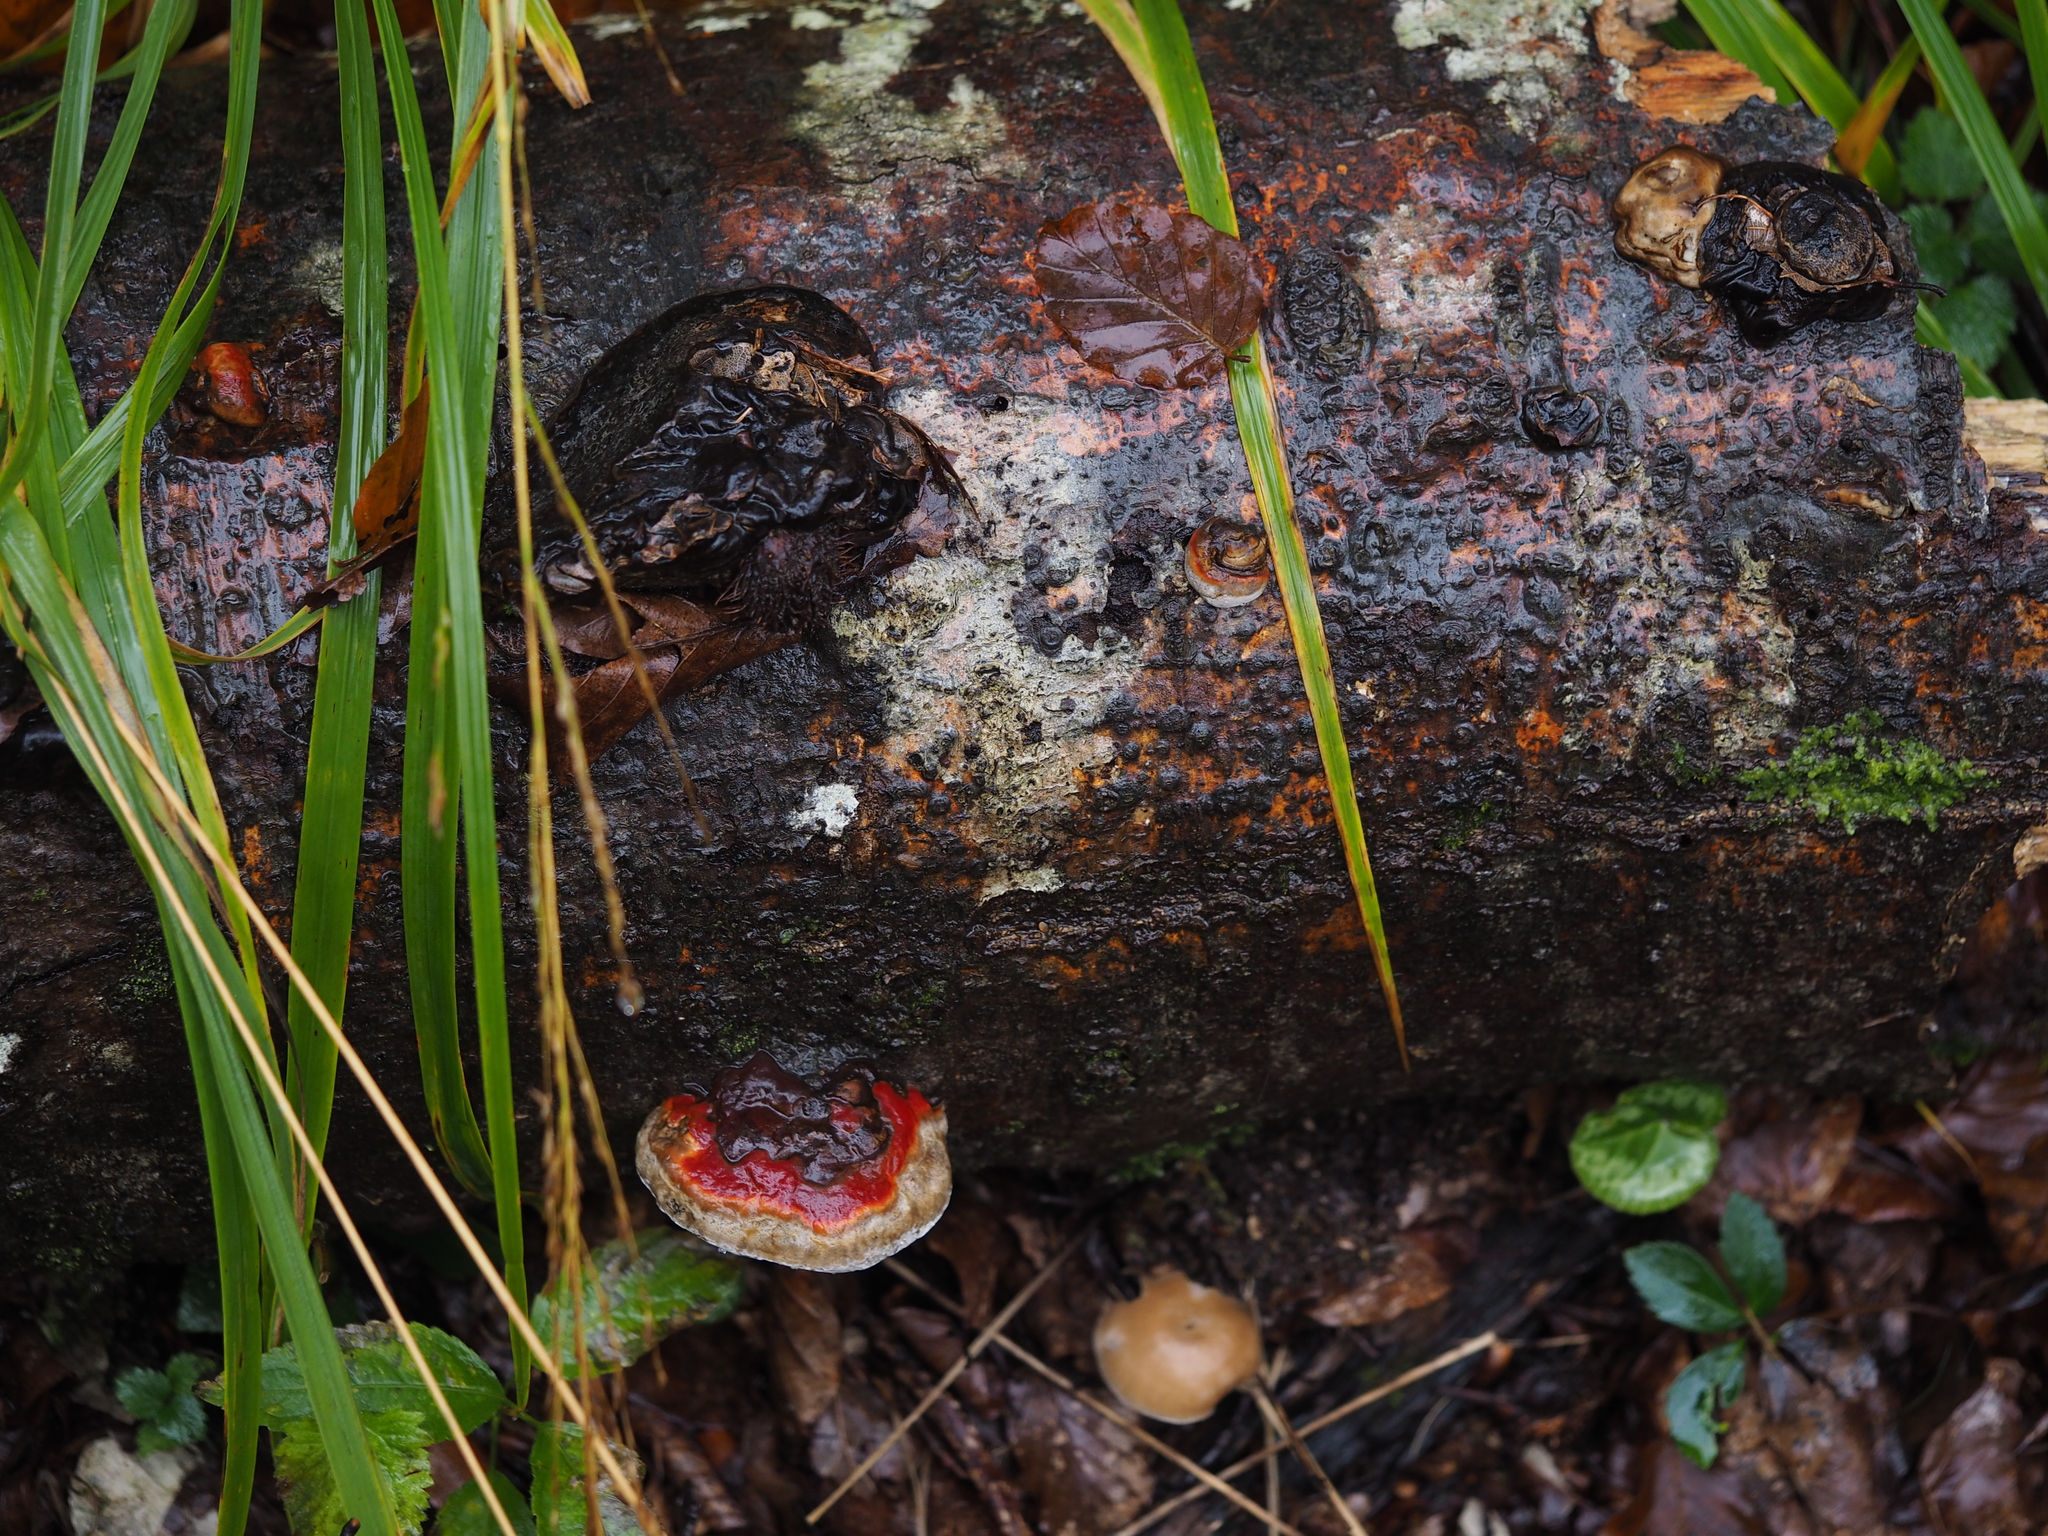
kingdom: Fungi
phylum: Basidiomycota
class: Agaricomycetes
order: Polyporales
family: Fomitopsidaceae
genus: Fomitopsis
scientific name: Fomitopsis pinicola
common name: Red-belted bracket
